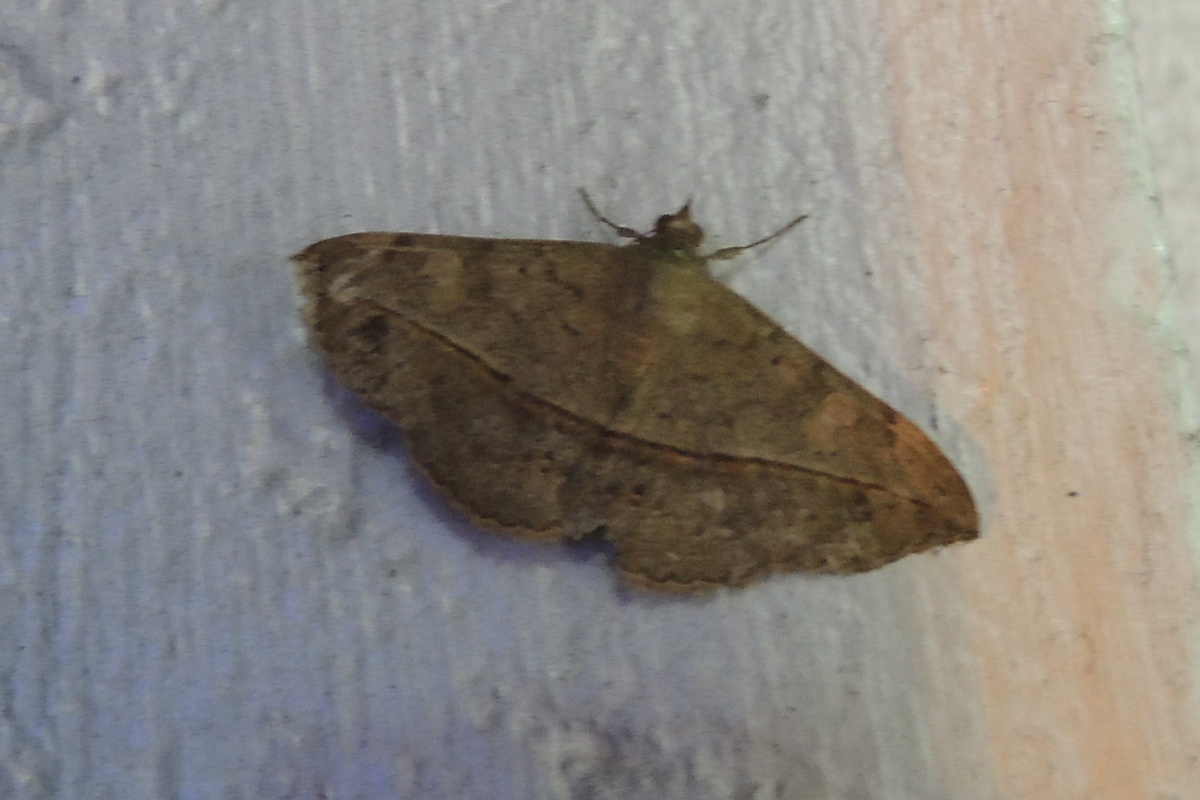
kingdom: Animalia
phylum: Arthropoda
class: Insecta
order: Lepidoptera
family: Erebidae
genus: Anticarsia
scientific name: Anticarsia gemmatalis
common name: Cutworm moth
